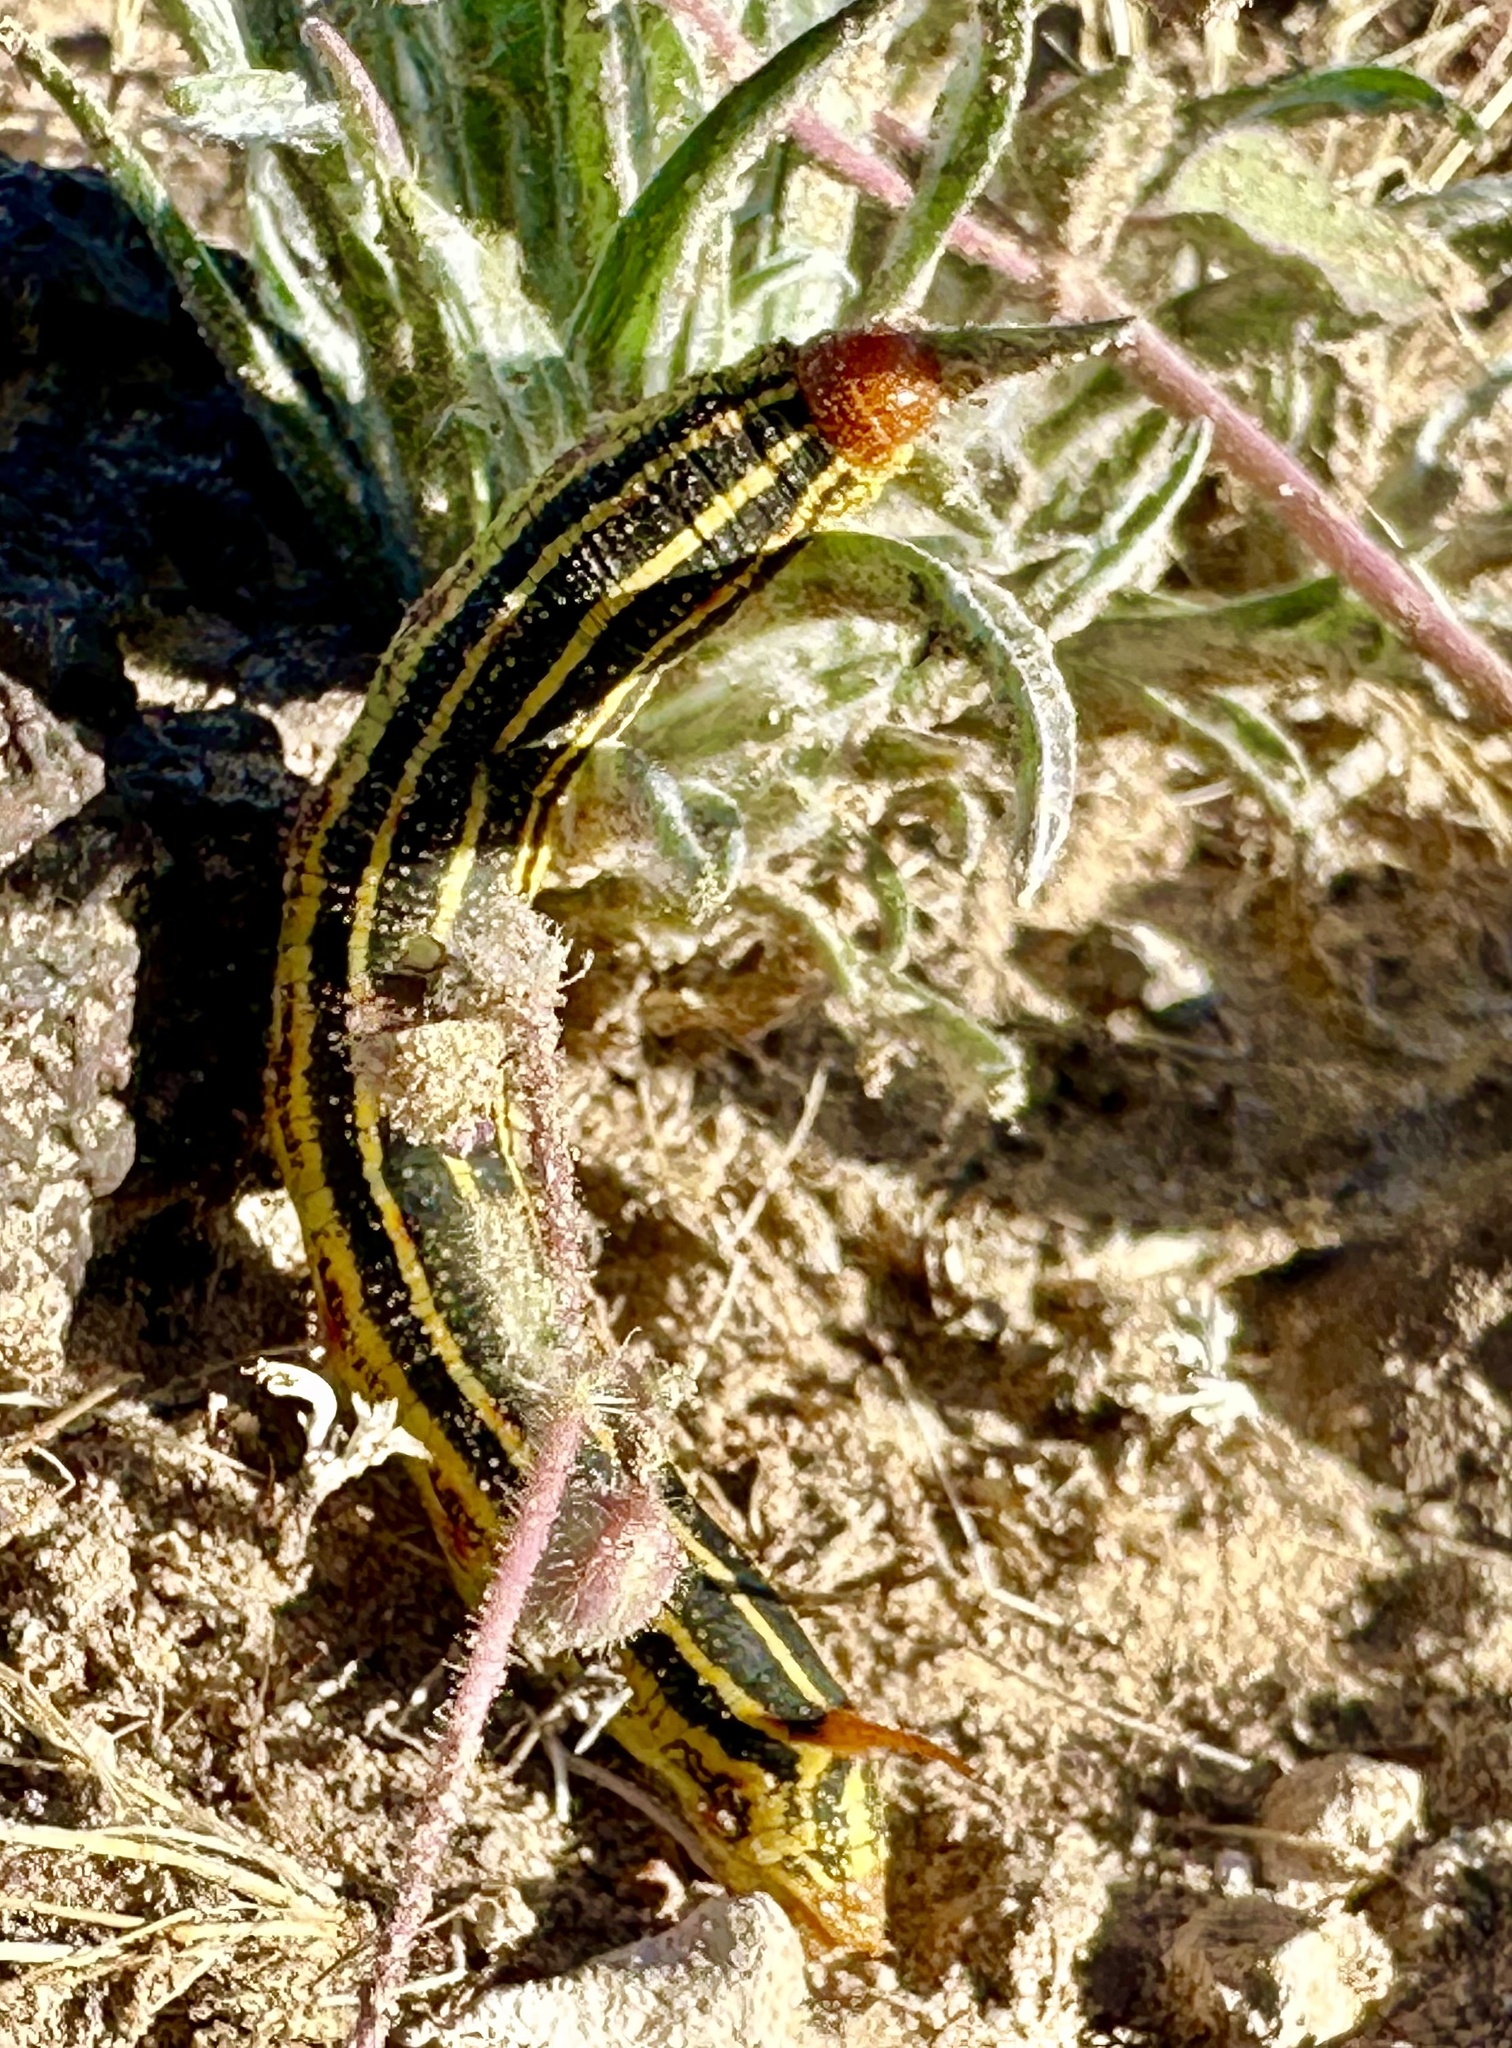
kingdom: Animalia
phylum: Arthropoda
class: Insecta
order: Lepidoptera
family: Sphingidae
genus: Hyles
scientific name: Hyles lineata
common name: White-lined sphinx
